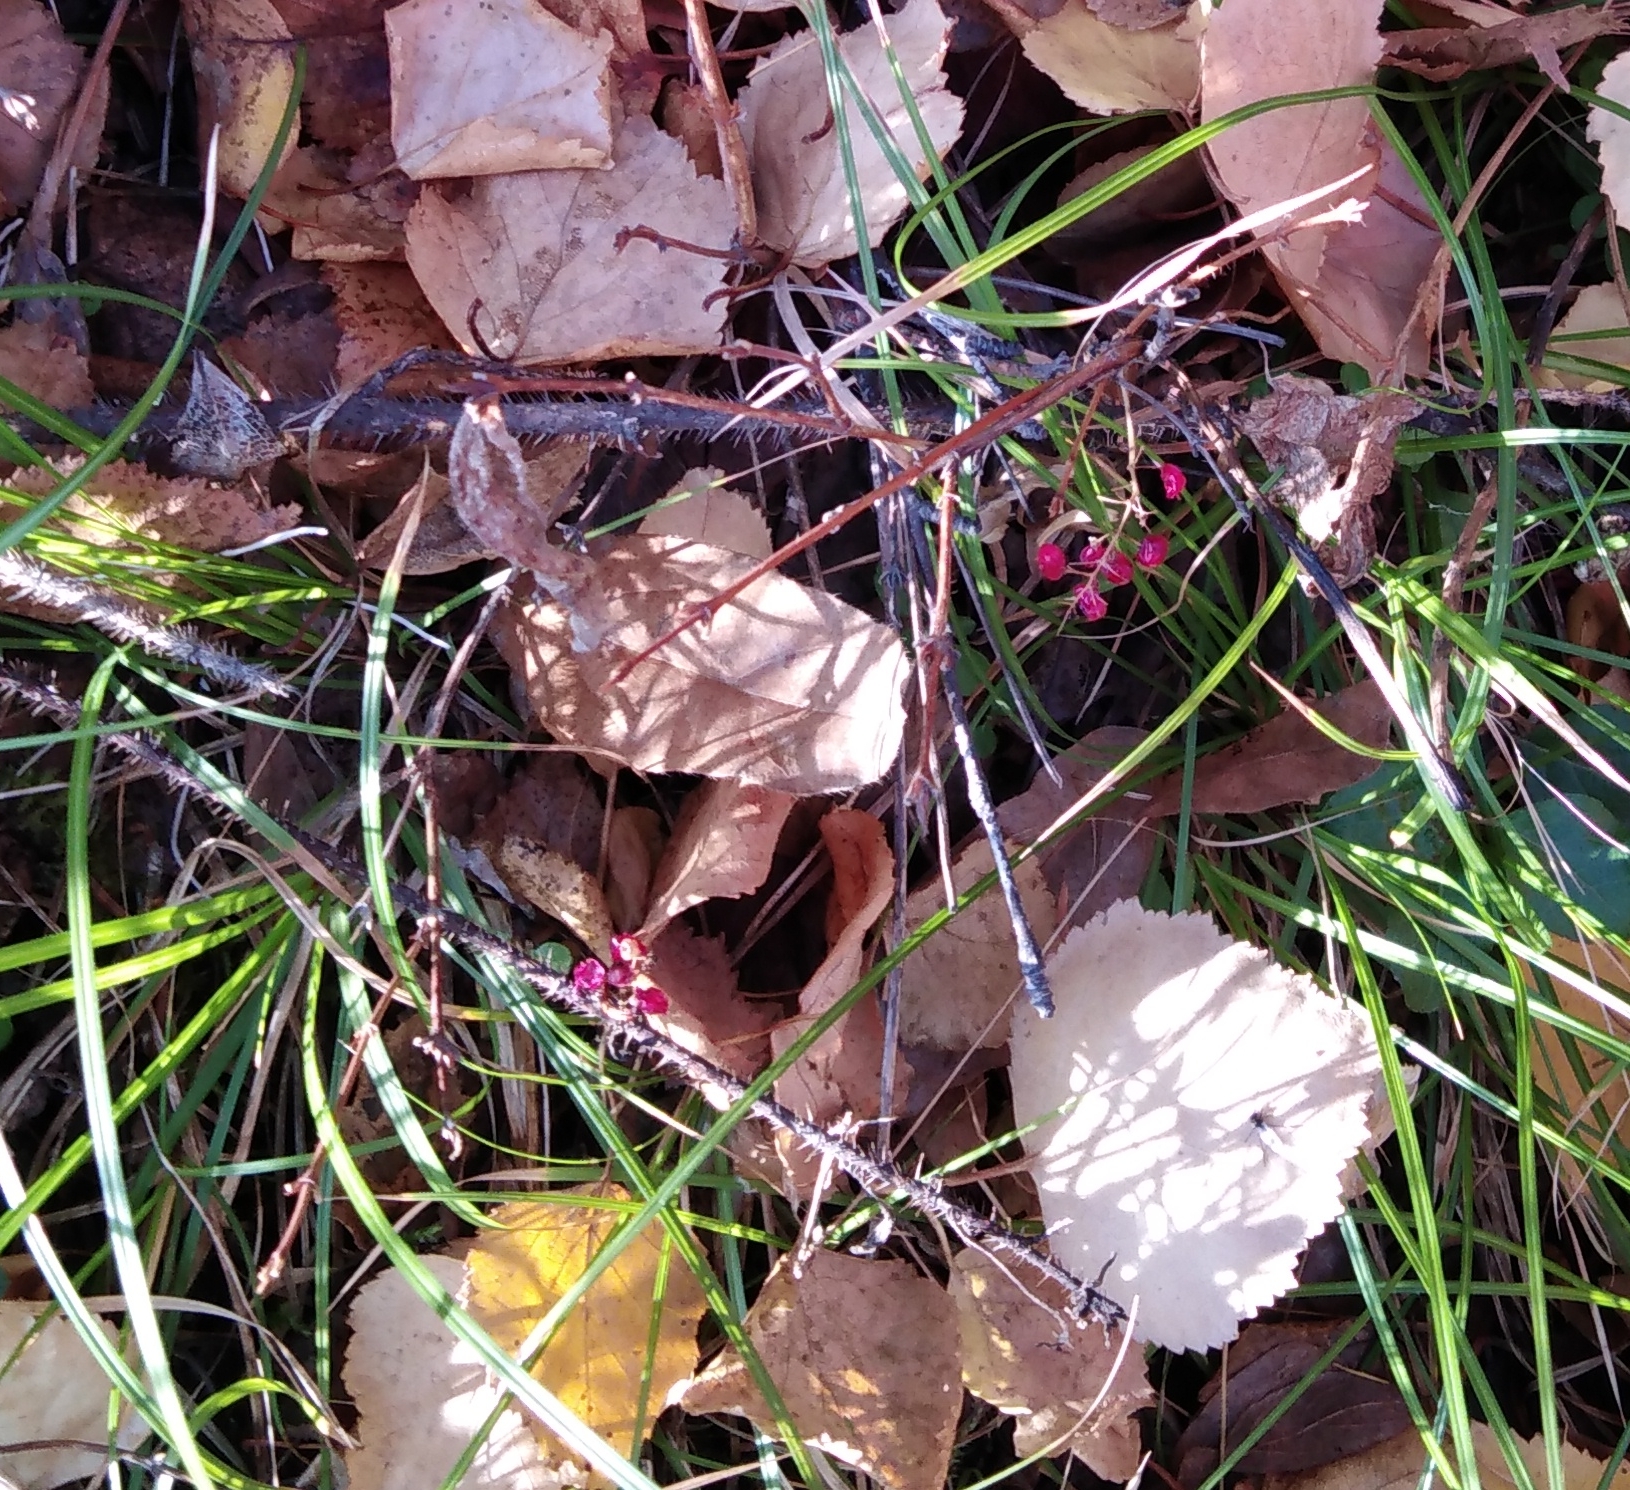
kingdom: Plantae
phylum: Tracheophyta
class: Magnoliopsida
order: Dipsacales
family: Caprifoliaceae
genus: Lonicera
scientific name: Lonicera caerulea
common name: Blue honeysuckle
